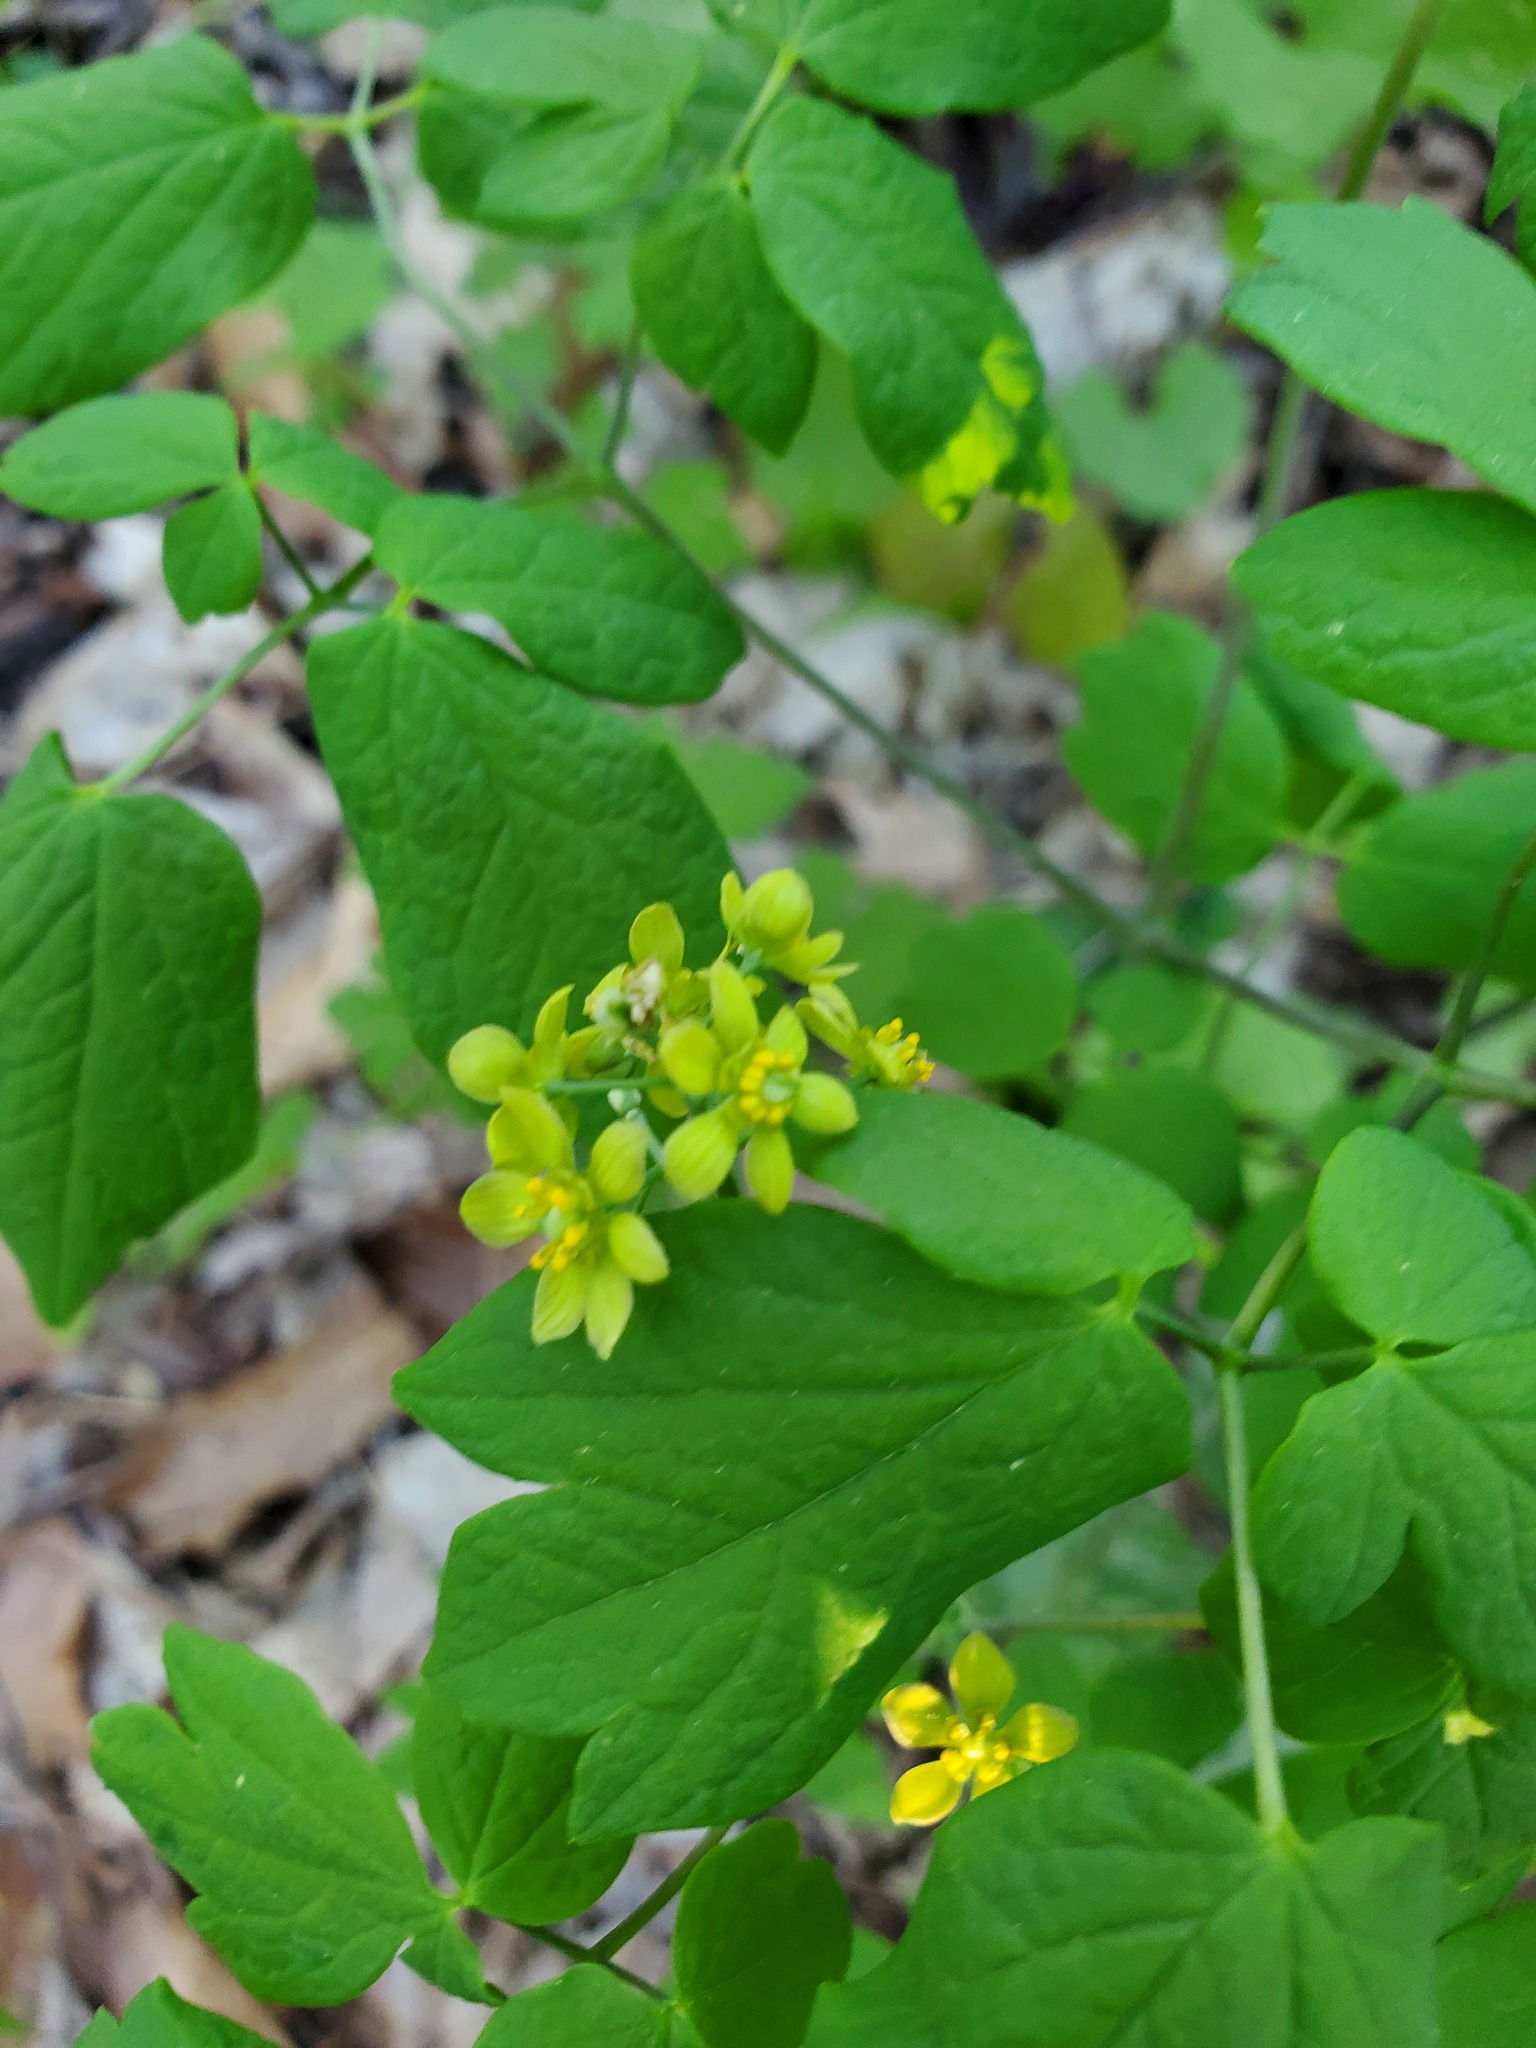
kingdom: Plantae
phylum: Tracheophyta
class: Magnoliopsida
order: Ranunculales
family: Berberidaceae
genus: Caulophyllum
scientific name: Caulophyllum thalictroides
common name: Blue cohosh
